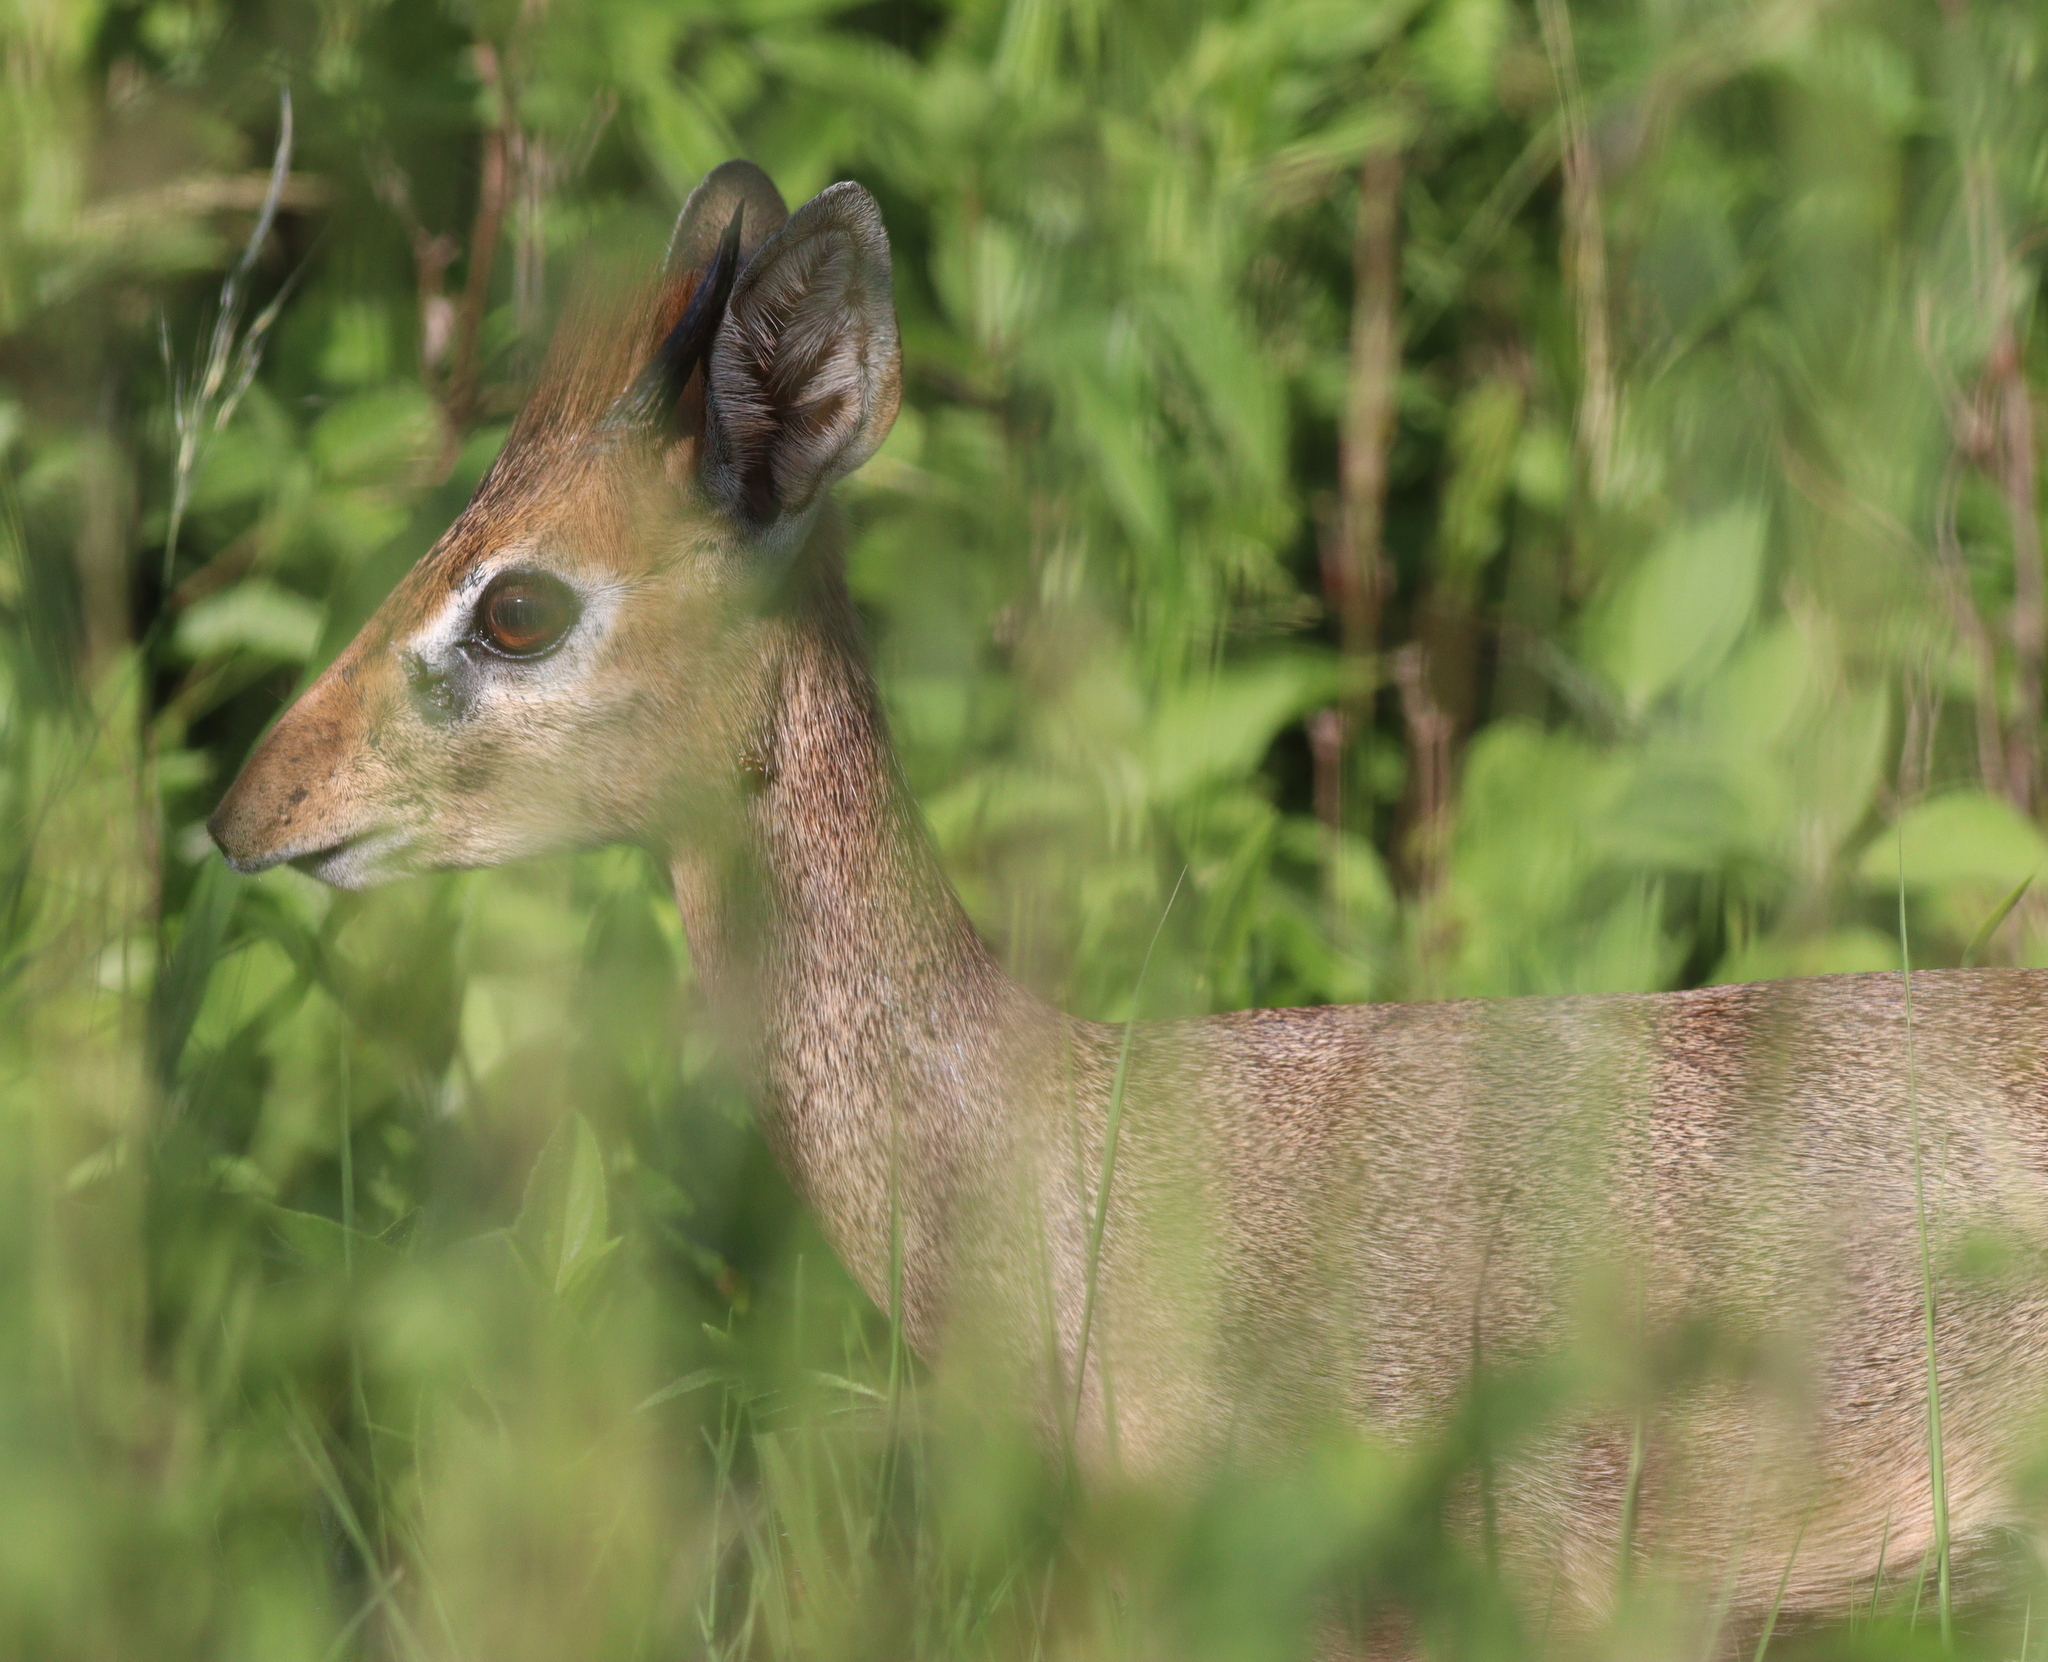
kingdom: Animalia
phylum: Chordata
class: Mammalia
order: Artiodactyla
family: Bovidae
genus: Madoqua
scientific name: Madoqua kirkii
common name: Kirk's dik-dik
